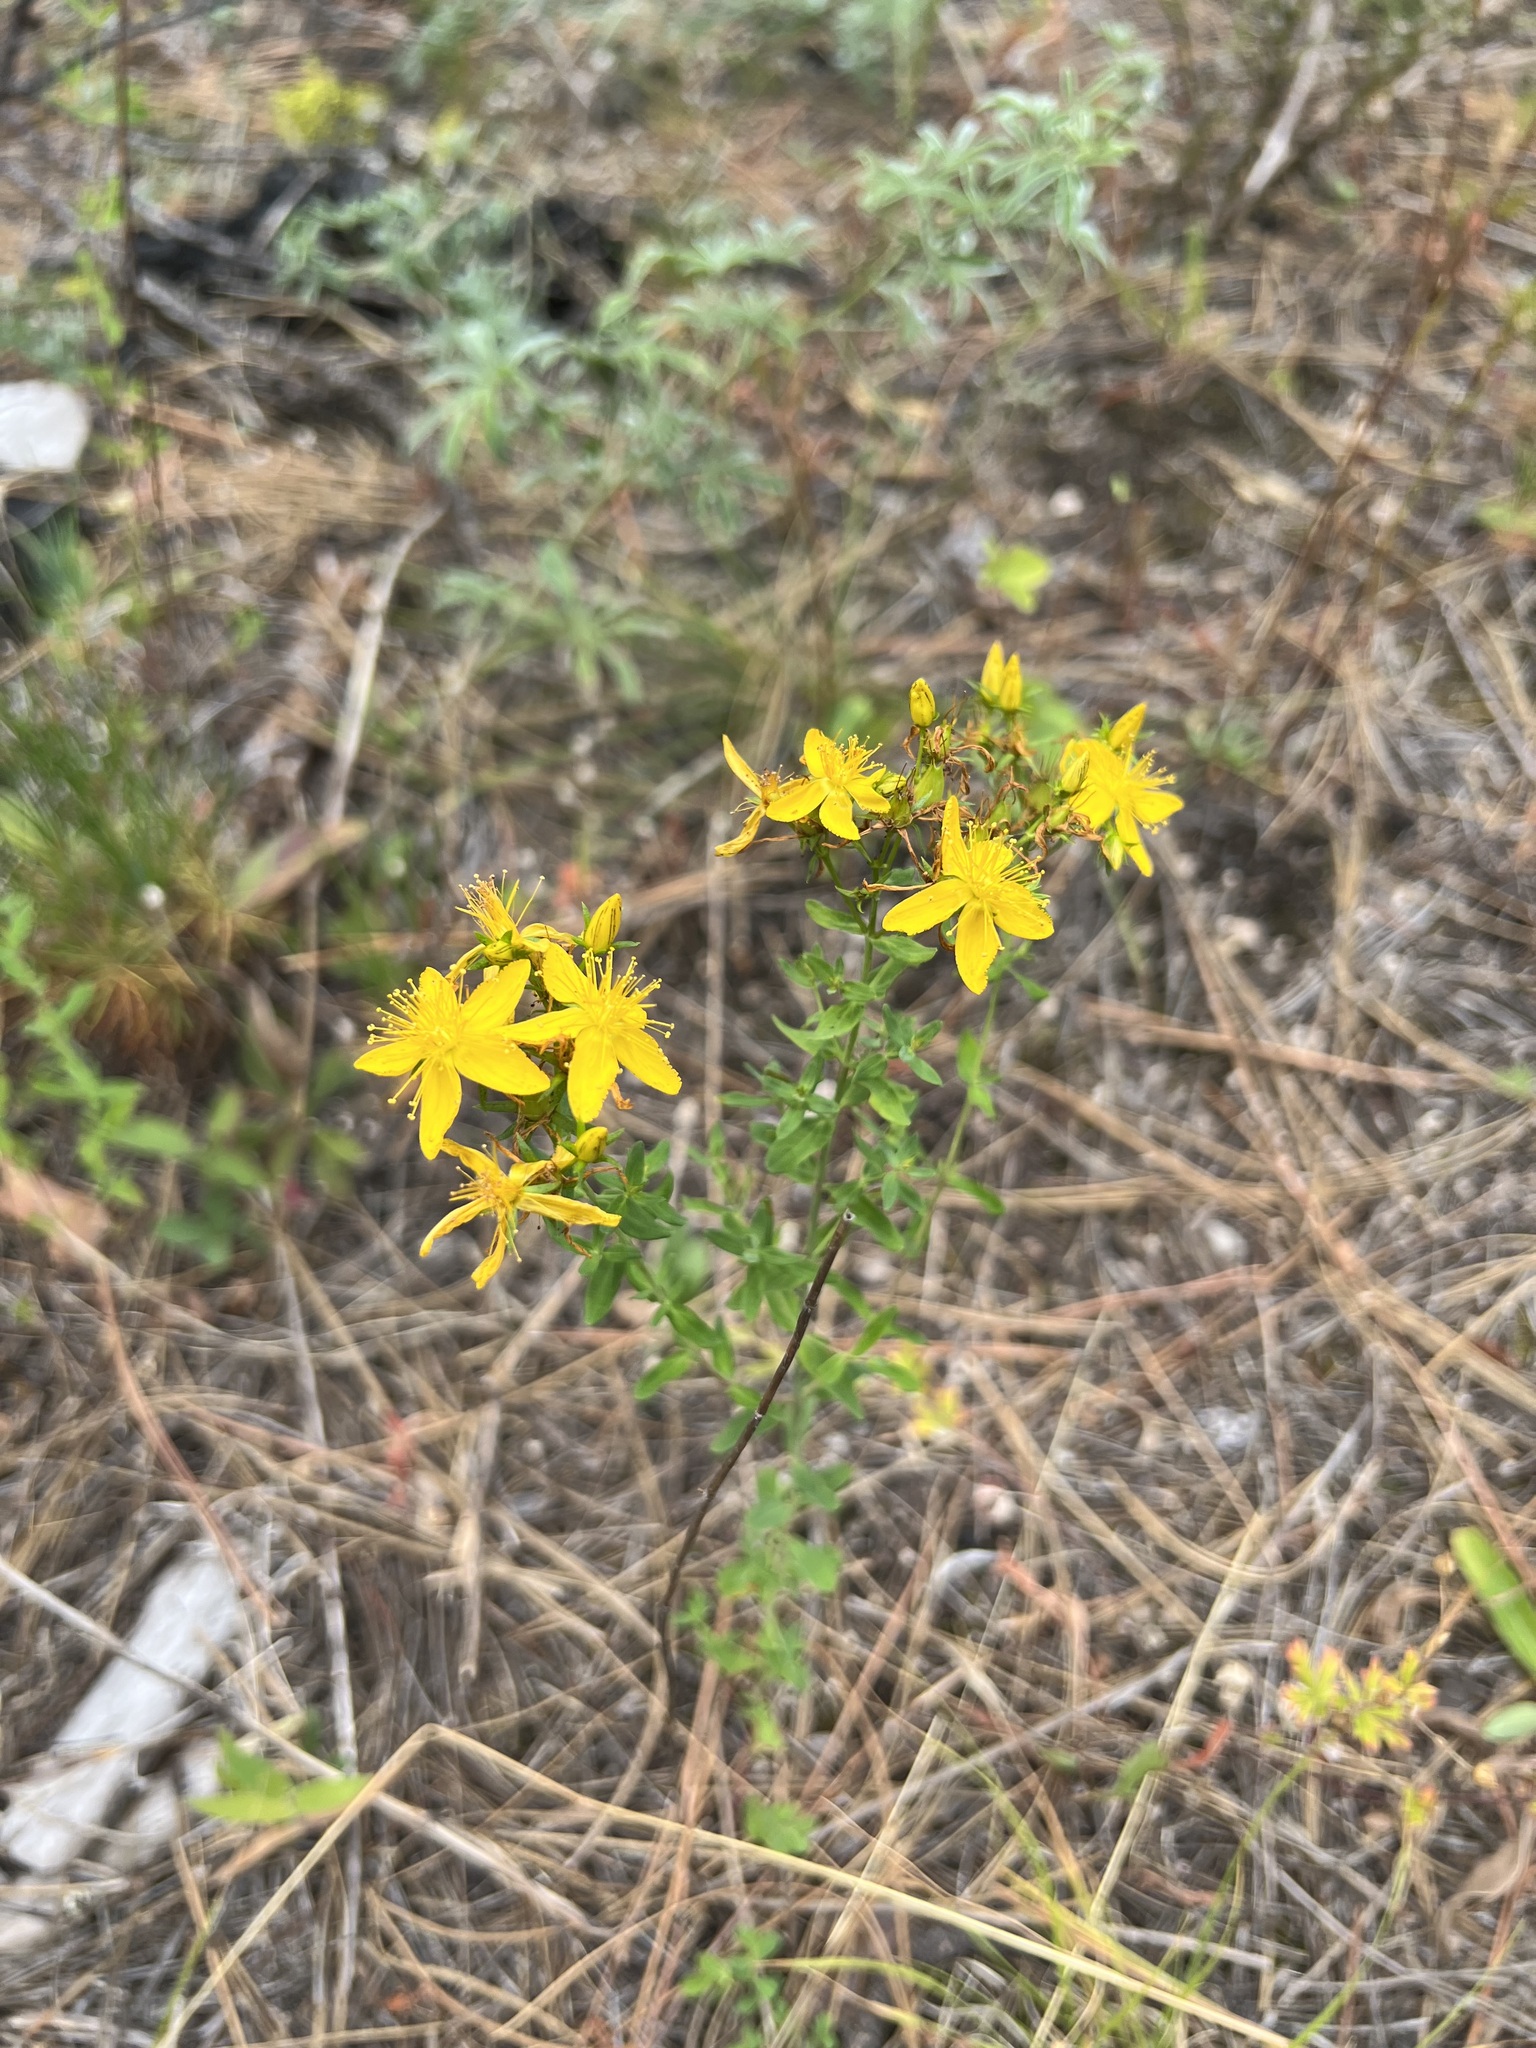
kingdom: Plantae
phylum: Tracheophyta
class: Magnoliopsida
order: Malpighiales
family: Hypericaceae
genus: Hypericum
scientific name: Hypericum perforatum
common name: Common st. johnswort
